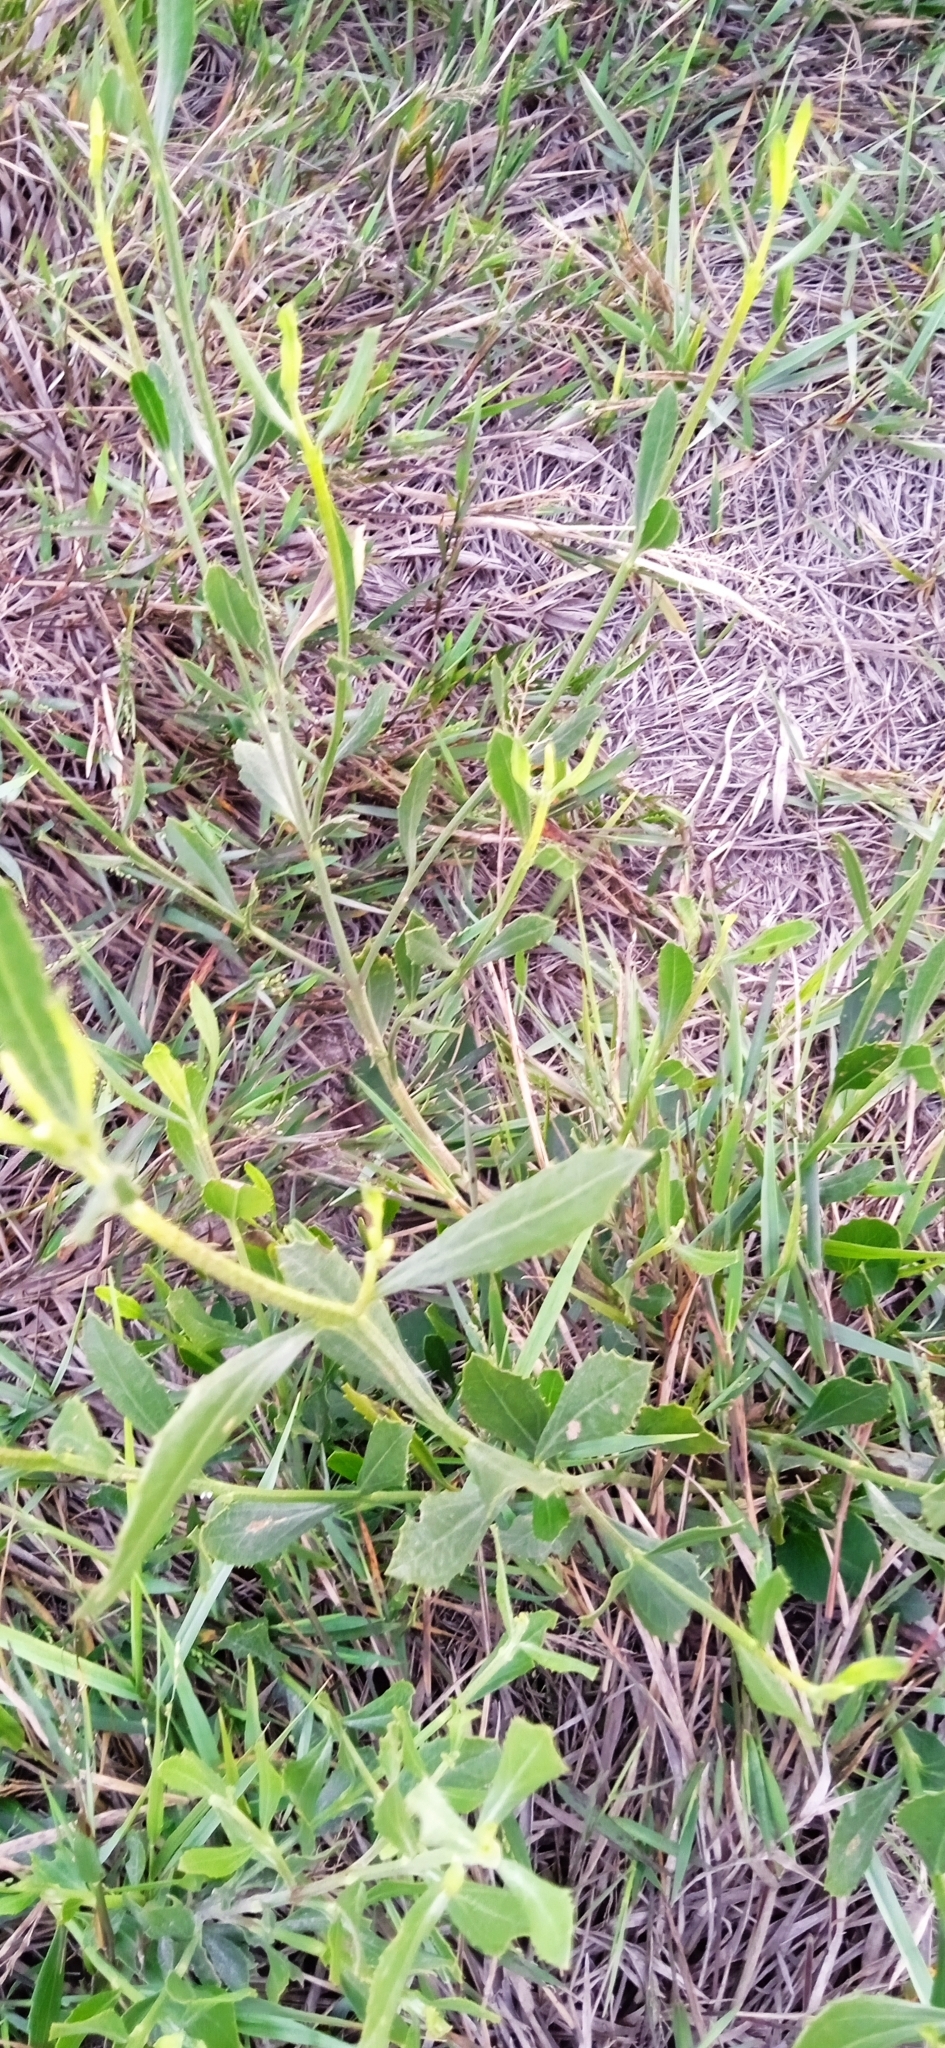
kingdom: Plantae
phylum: Tracheophyta
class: Magnoliopsida
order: Asterales
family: Asteraceae
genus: Baccharis
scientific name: Baccharis spicata
